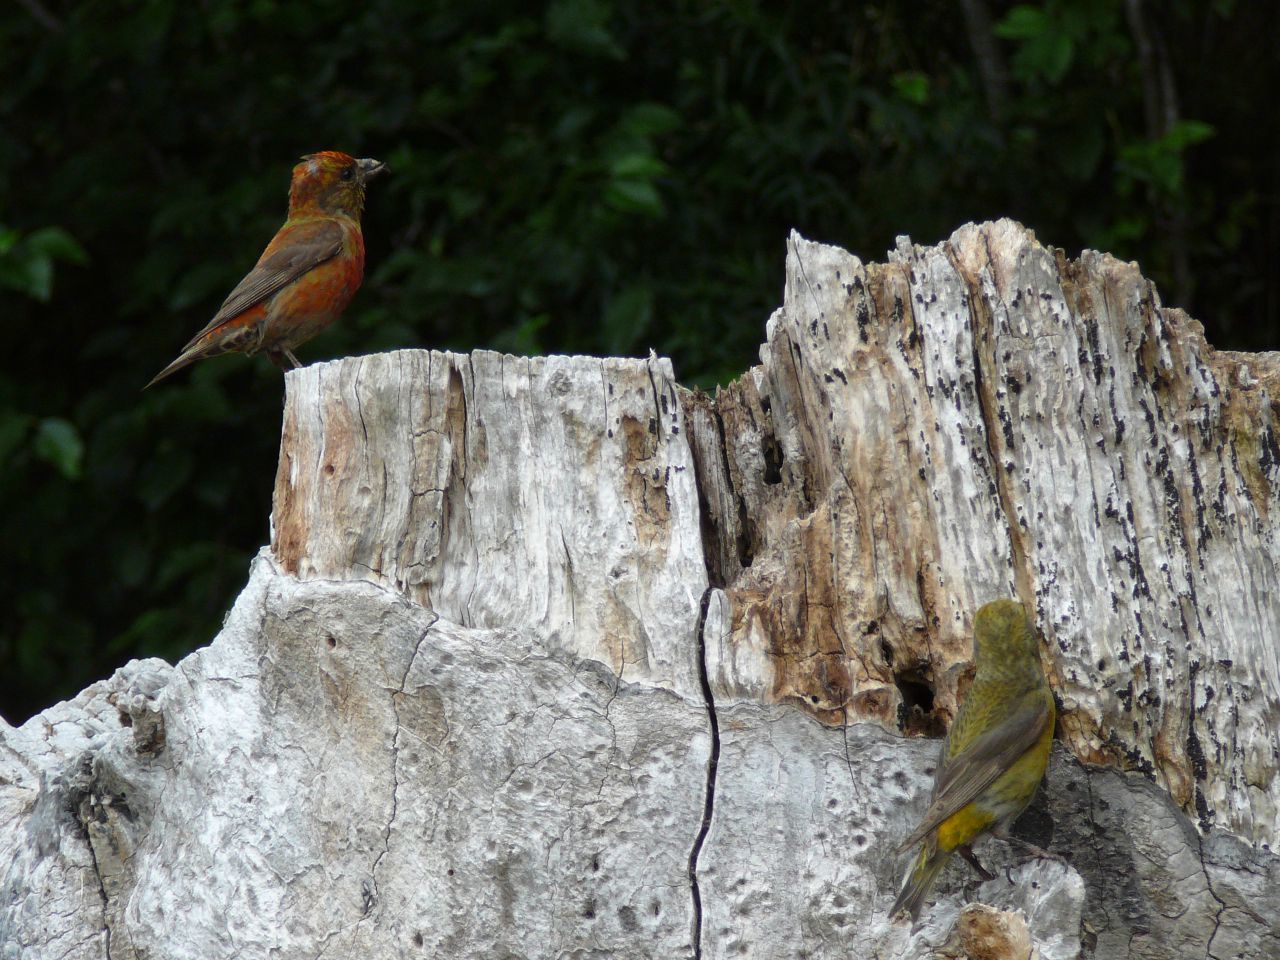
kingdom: Animalia
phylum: Chordata
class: Aves
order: Passeriformes
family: Fringillidae
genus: Loxia
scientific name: Loxia curvirostra
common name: Red crossbill
